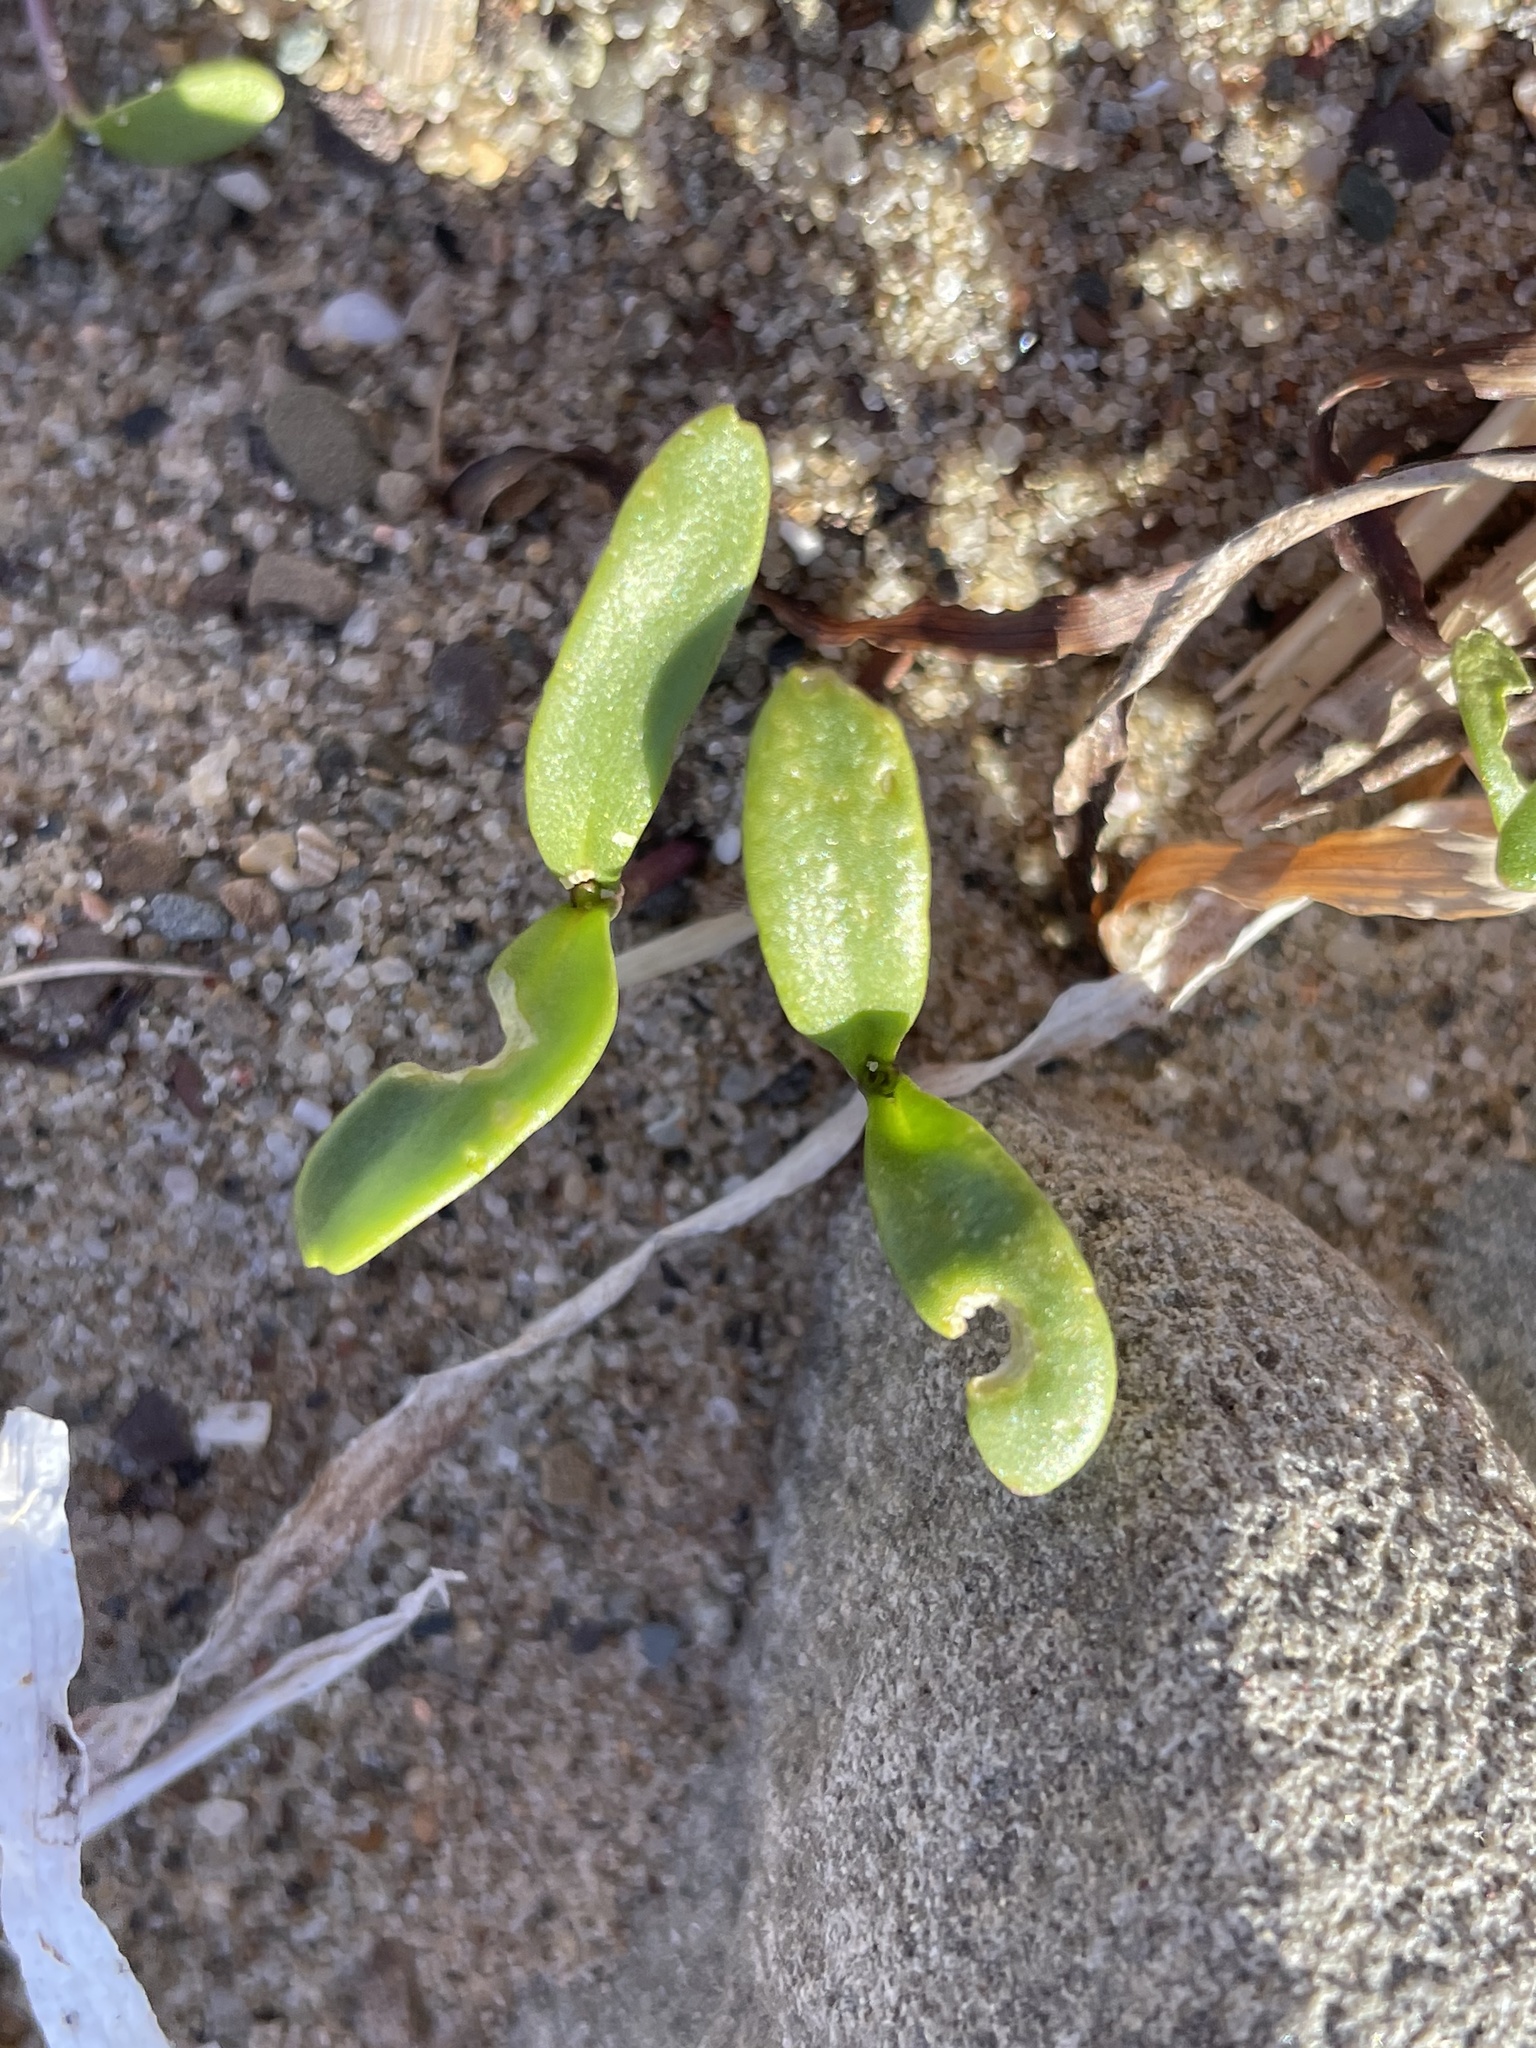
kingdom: Plantae
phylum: Tracheophyta
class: Magnoliopsida
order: Brassicales
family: Brassicaceae
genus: Cakile
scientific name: Cakile edentula
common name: American sea rocket
